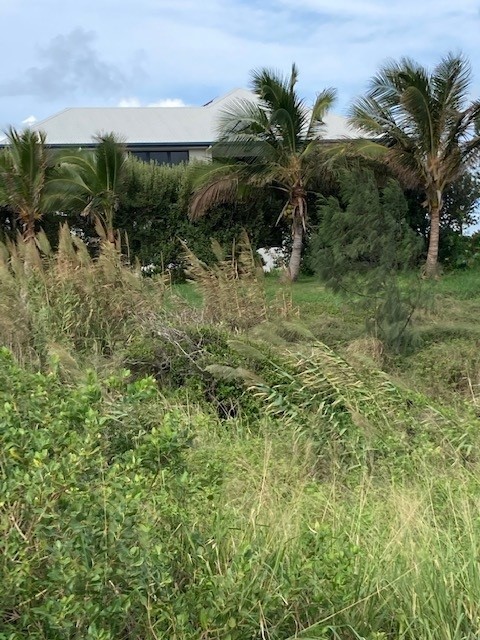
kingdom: Plantae
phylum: Tracheophyta
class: Liliopsida
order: Poales
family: Poaceae
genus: Arundo
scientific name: Arundo donax
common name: Giant reed
